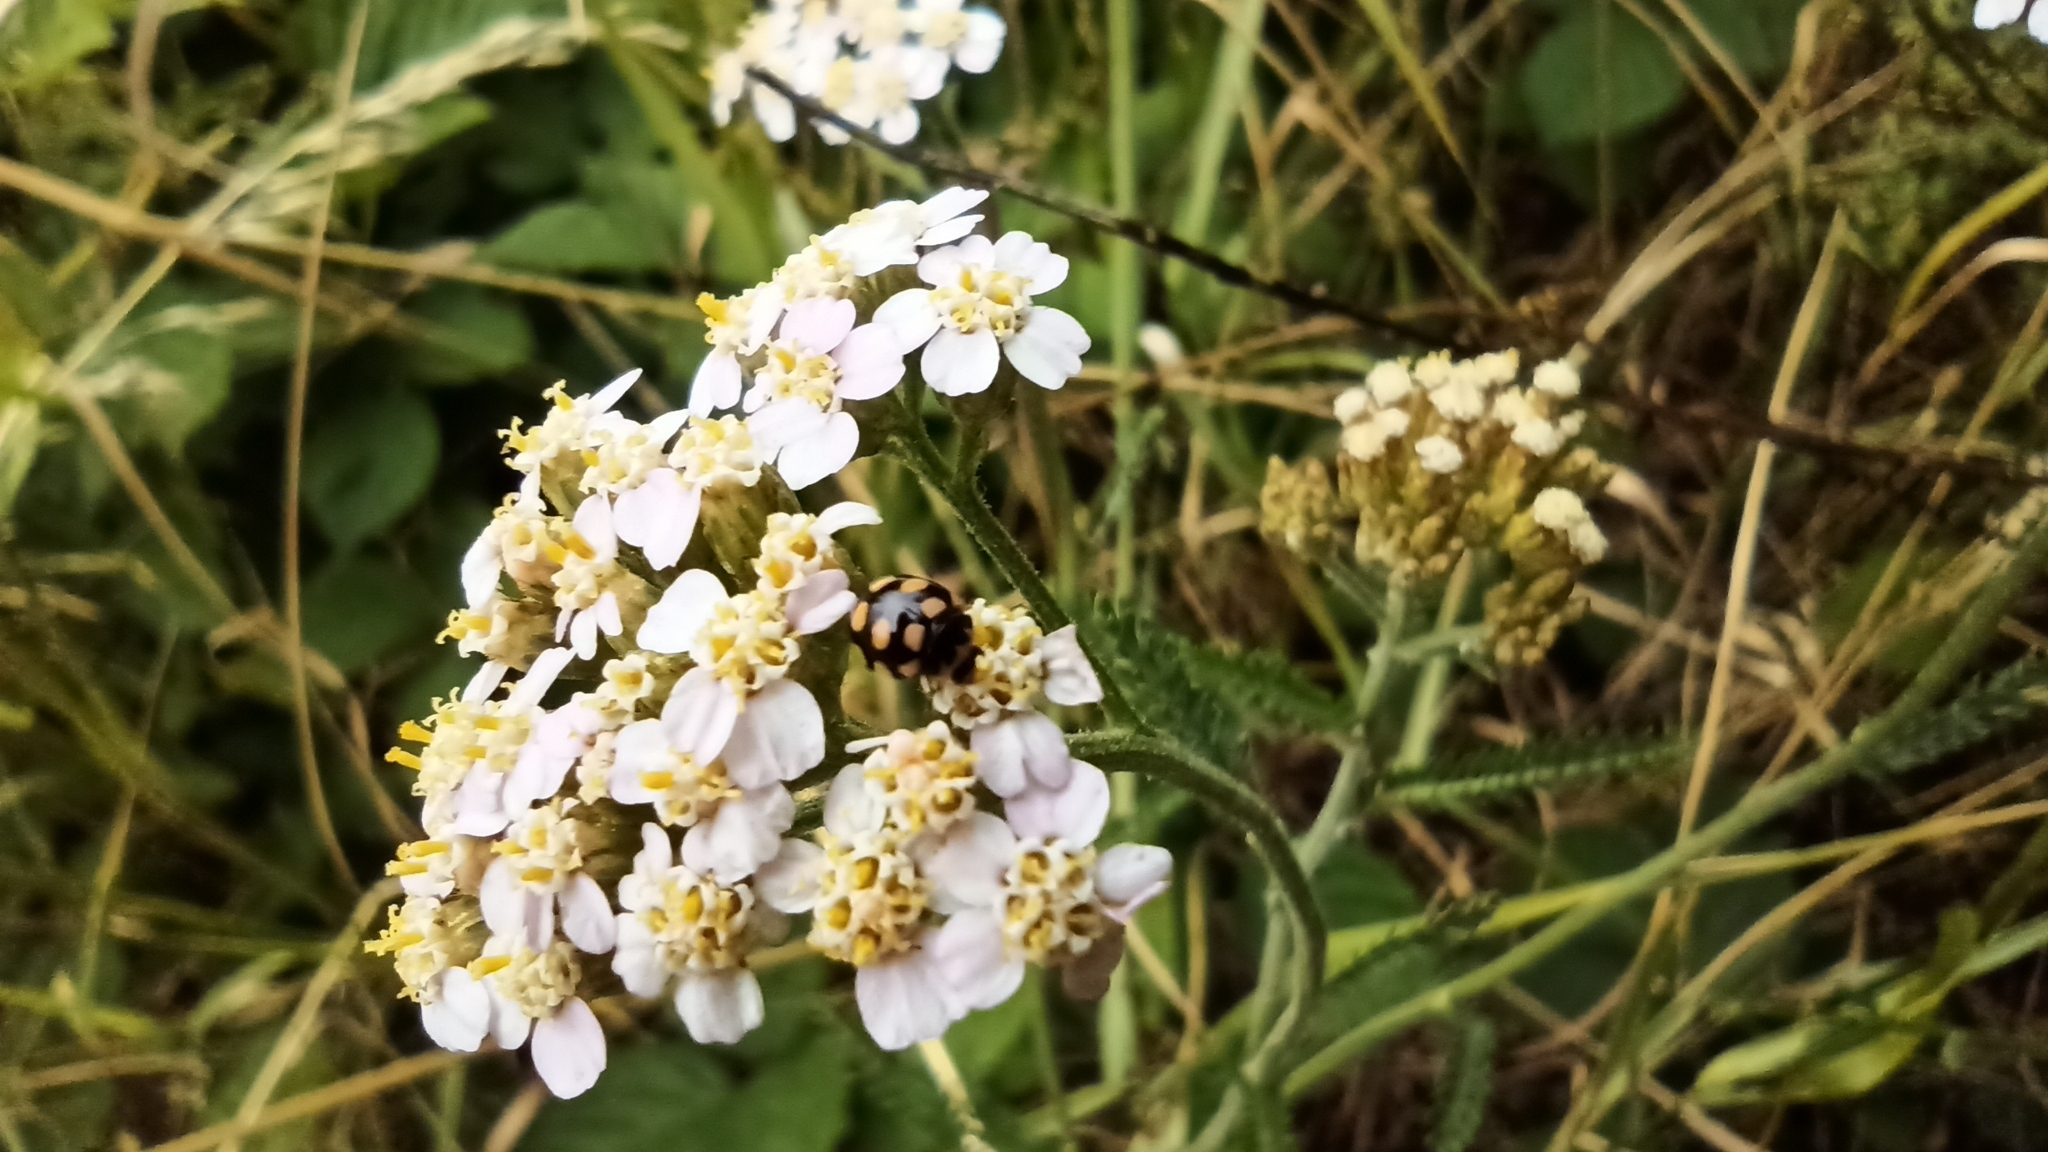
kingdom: Animalia
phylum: Arthropoda
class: Insecta
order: Coleoptera
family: Coccinellidae
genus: Coccinula
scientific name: Coccinula quatuordecimpustulata
